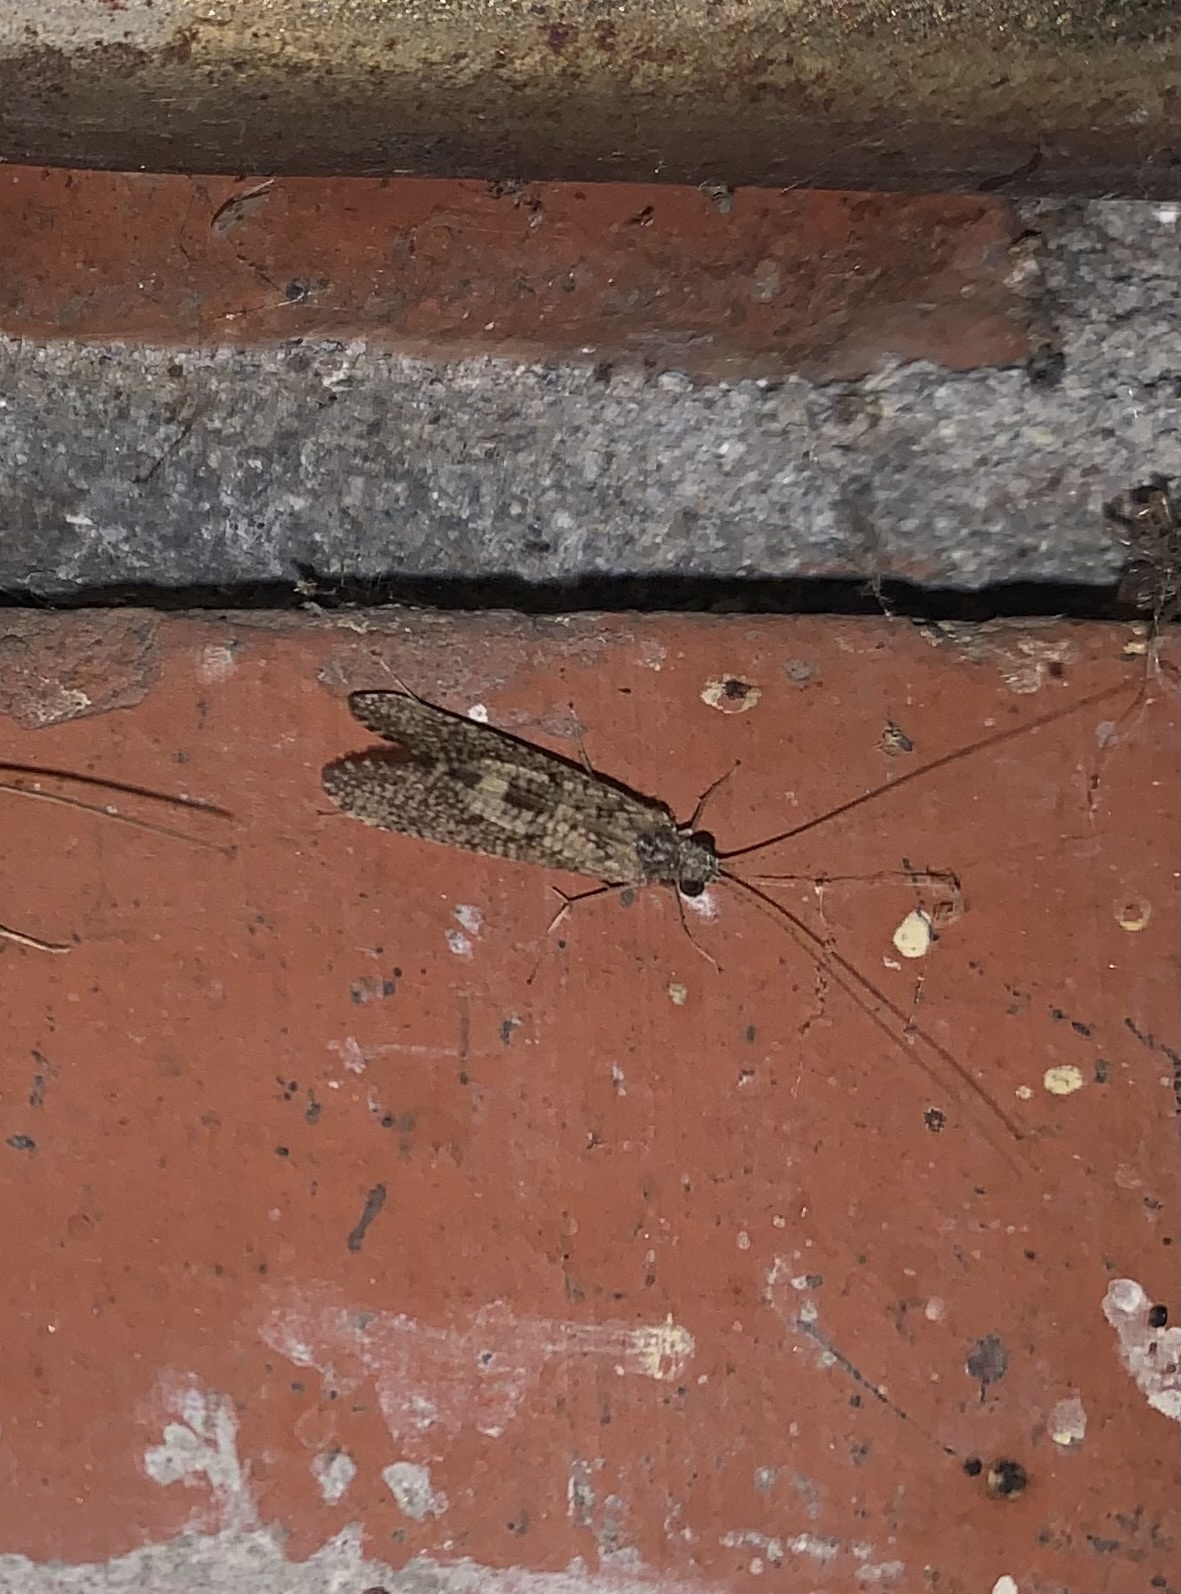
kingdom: Animalia
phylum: Arthropoda
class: Insecta
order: Trichoptera
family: Hydropsychidae
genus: Hydropsyche
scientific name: Hydropsyche sciligra
